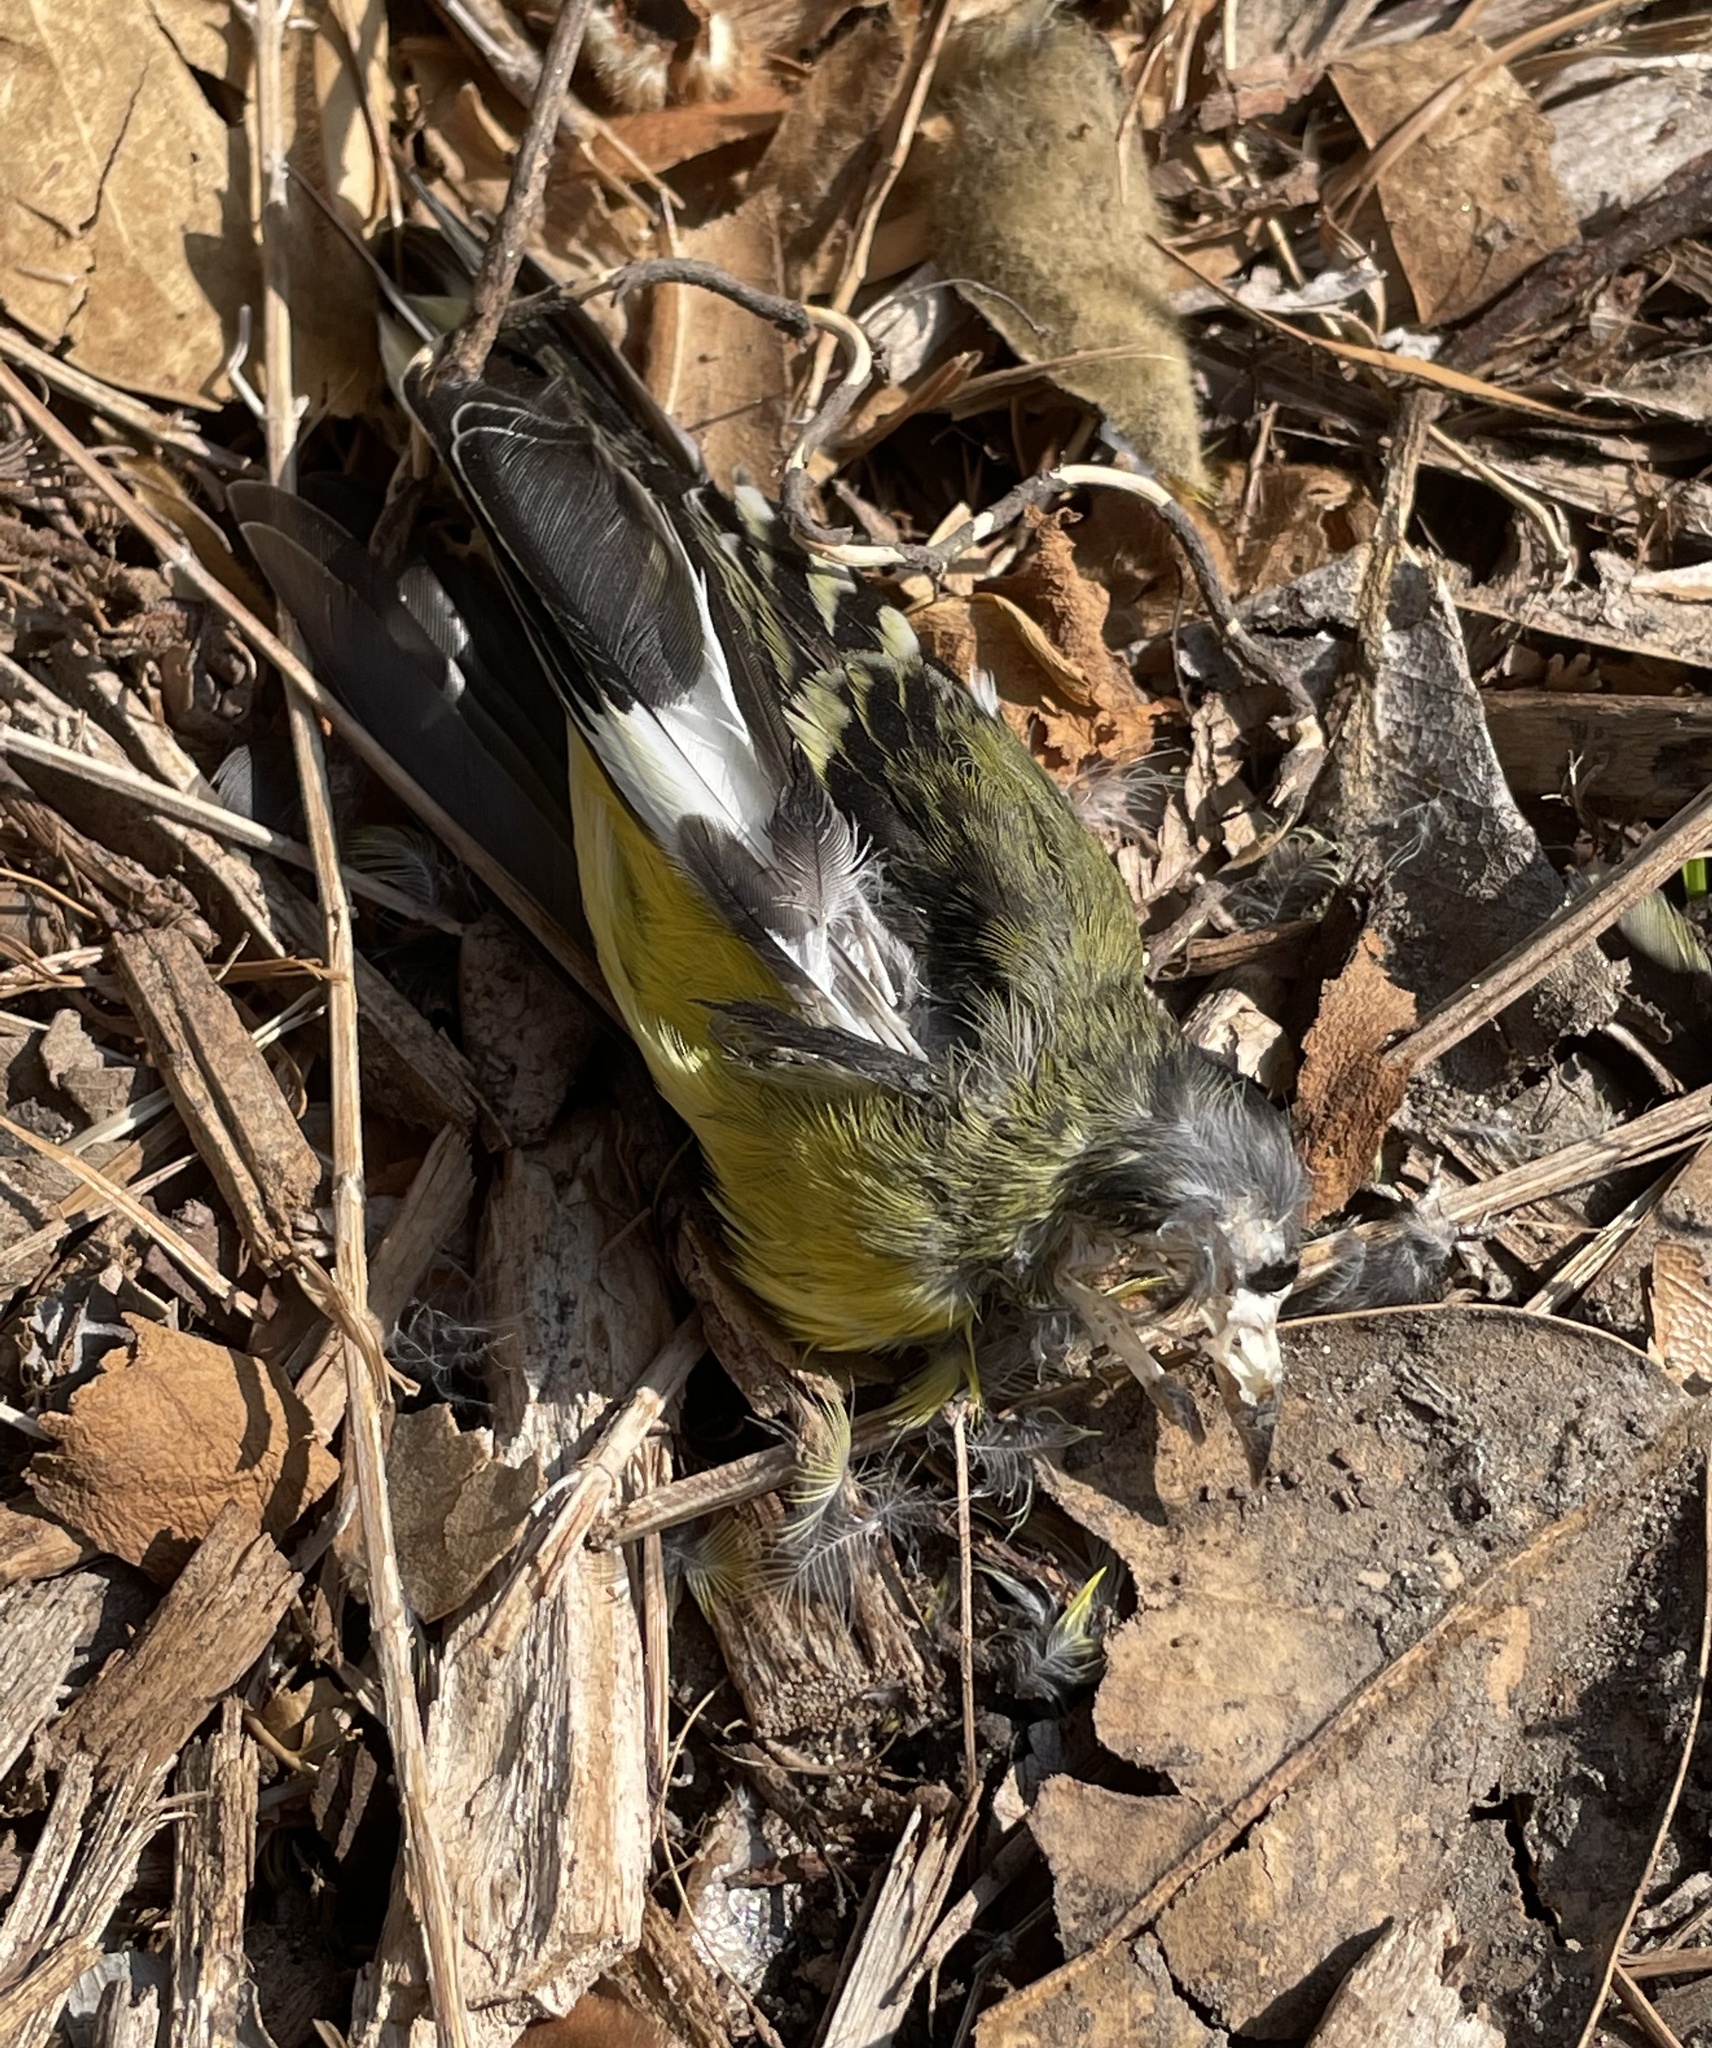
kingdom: Animalia
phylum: Chordata
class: Aves
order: Passeriformes
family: Fringillidae
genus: Spinus
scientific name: Spinus psaltria
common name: Lesser goldfinch
